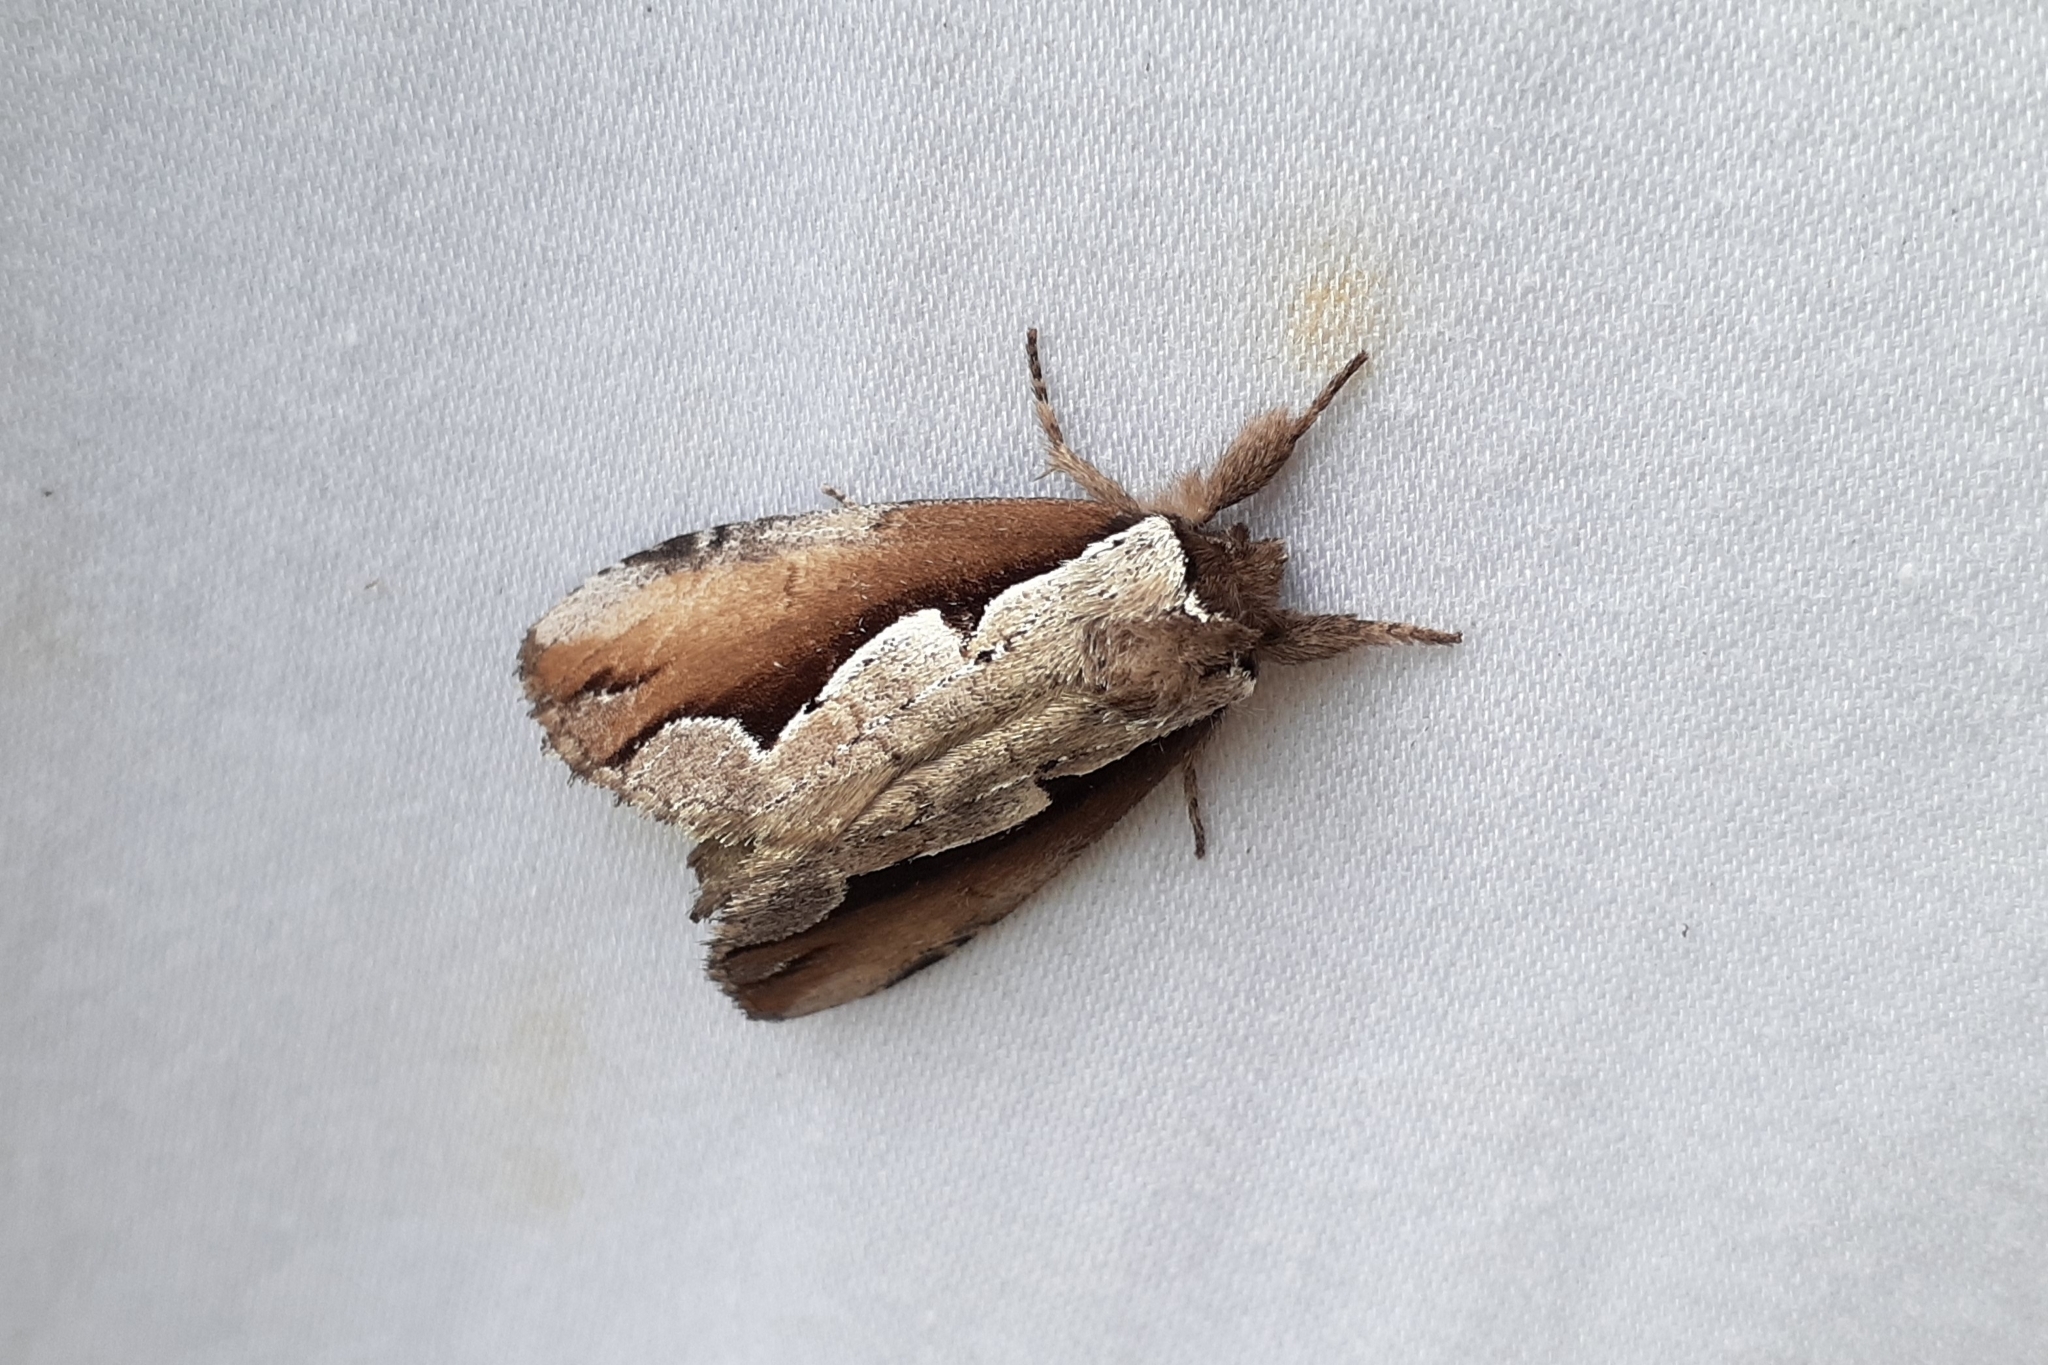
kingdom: Animalia
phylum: Arthropoda
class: Insecta
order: Lepidoptera
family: Notodontidae
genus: Nerice
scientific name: Nerice bidentata
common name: Double-toothed prominent
